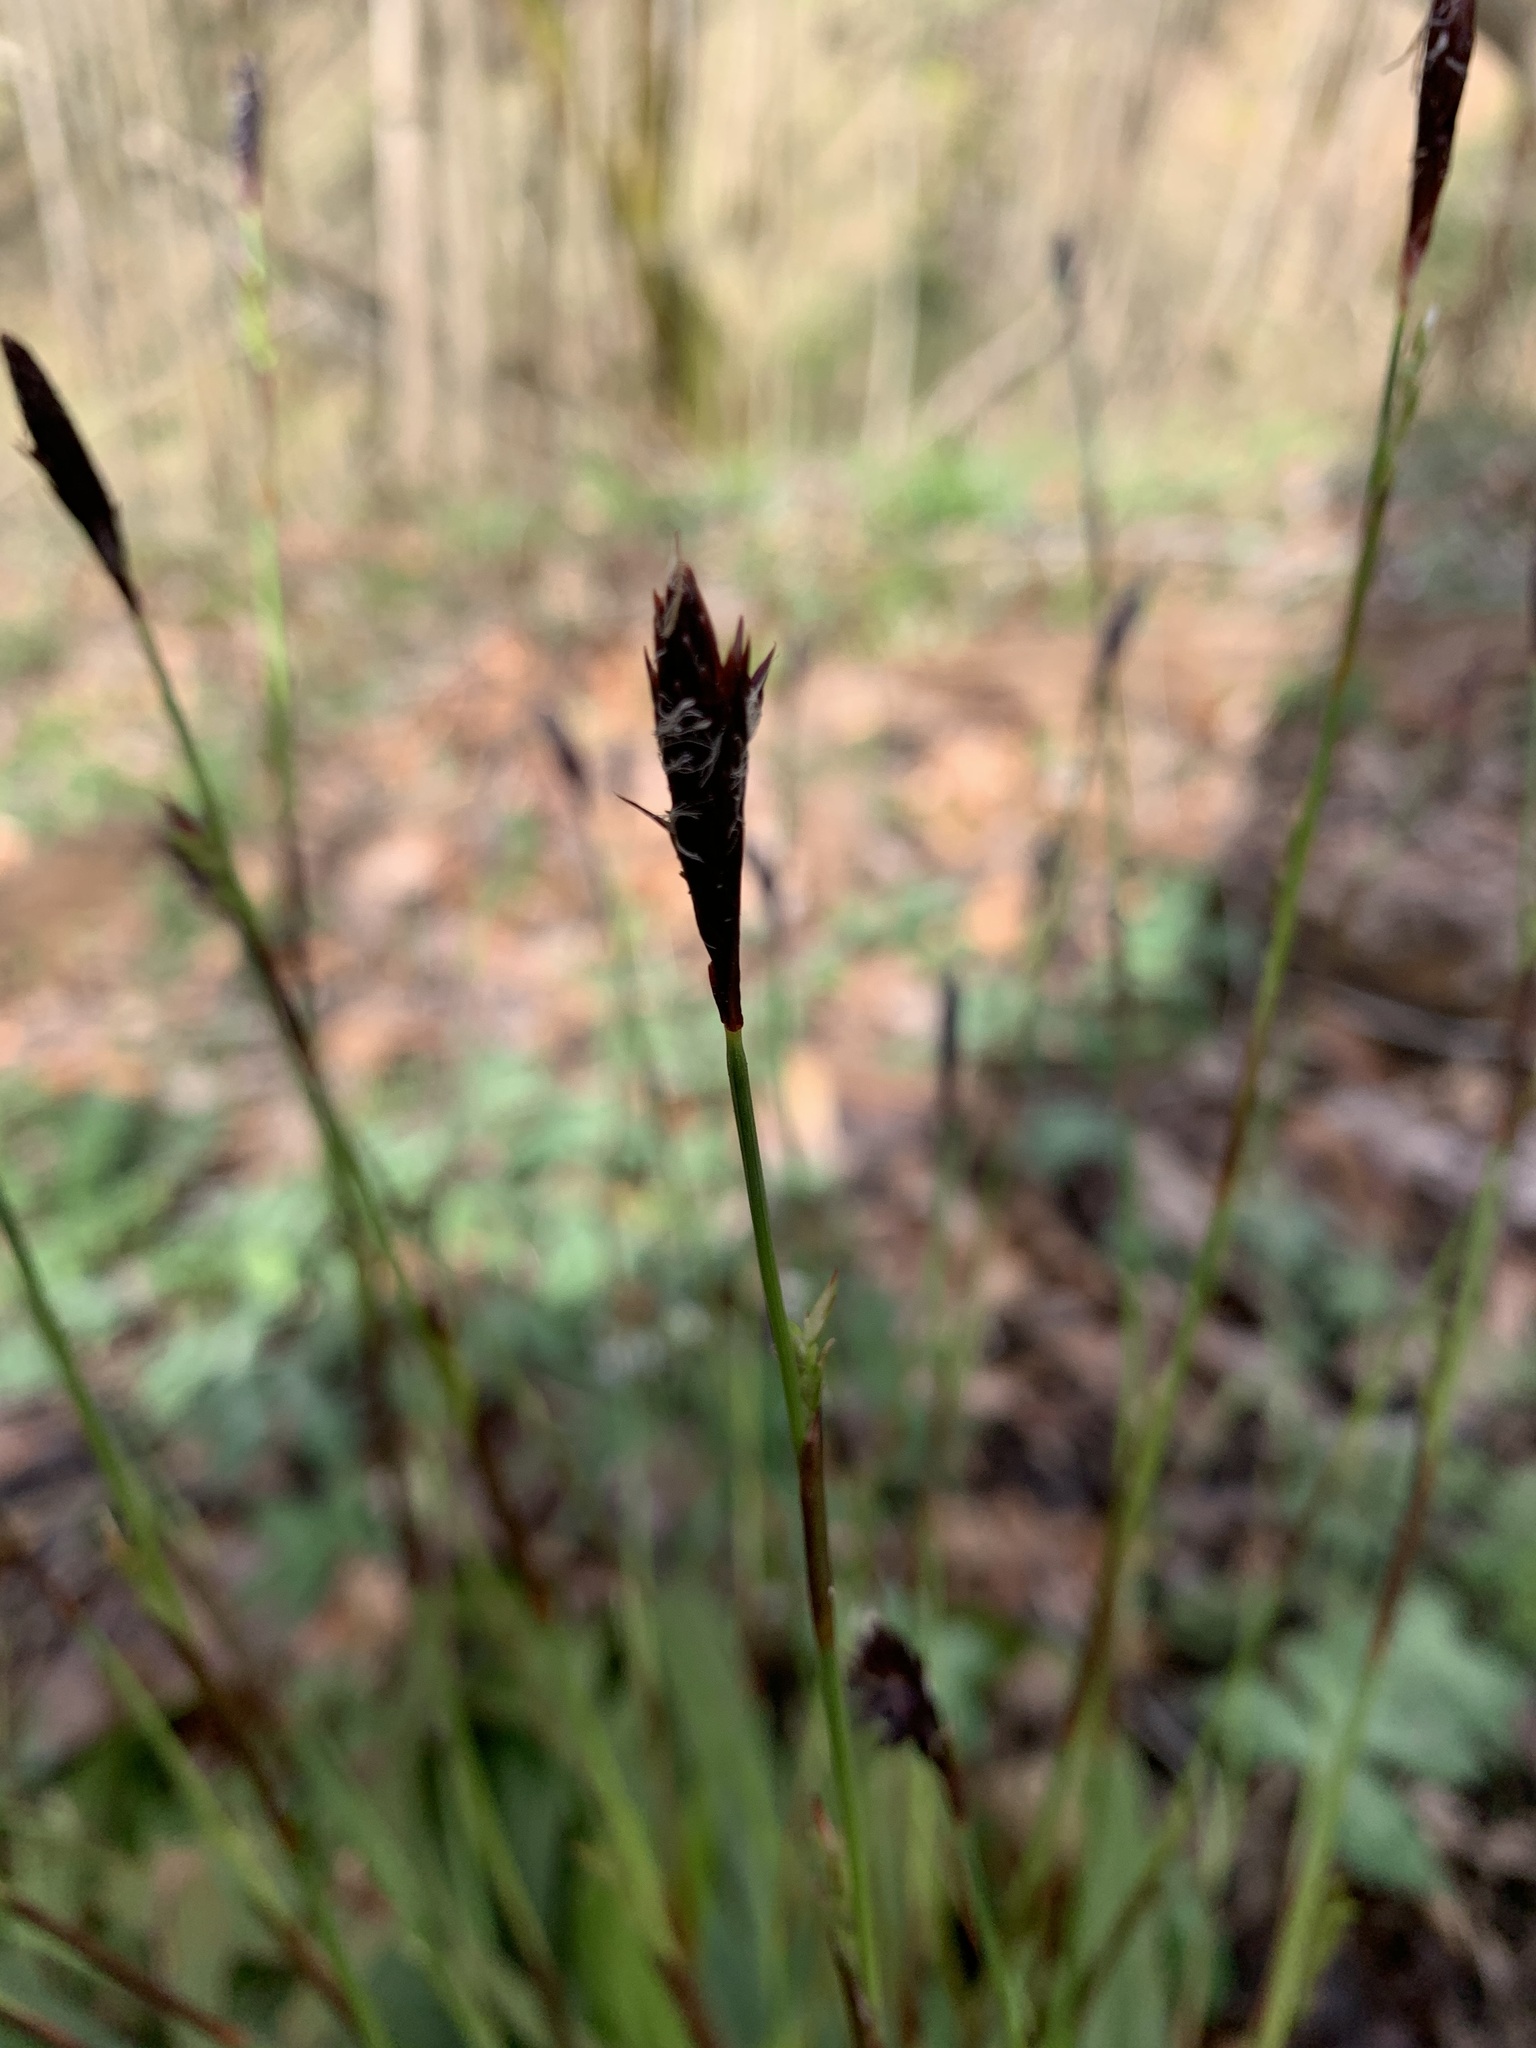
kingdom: Plantae
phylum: Tracheophyta
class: Liliopsida
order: Poales
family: Cyperaceae
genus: Carex
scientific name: Carex plantaginea
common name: Plantain-leaved sedge
